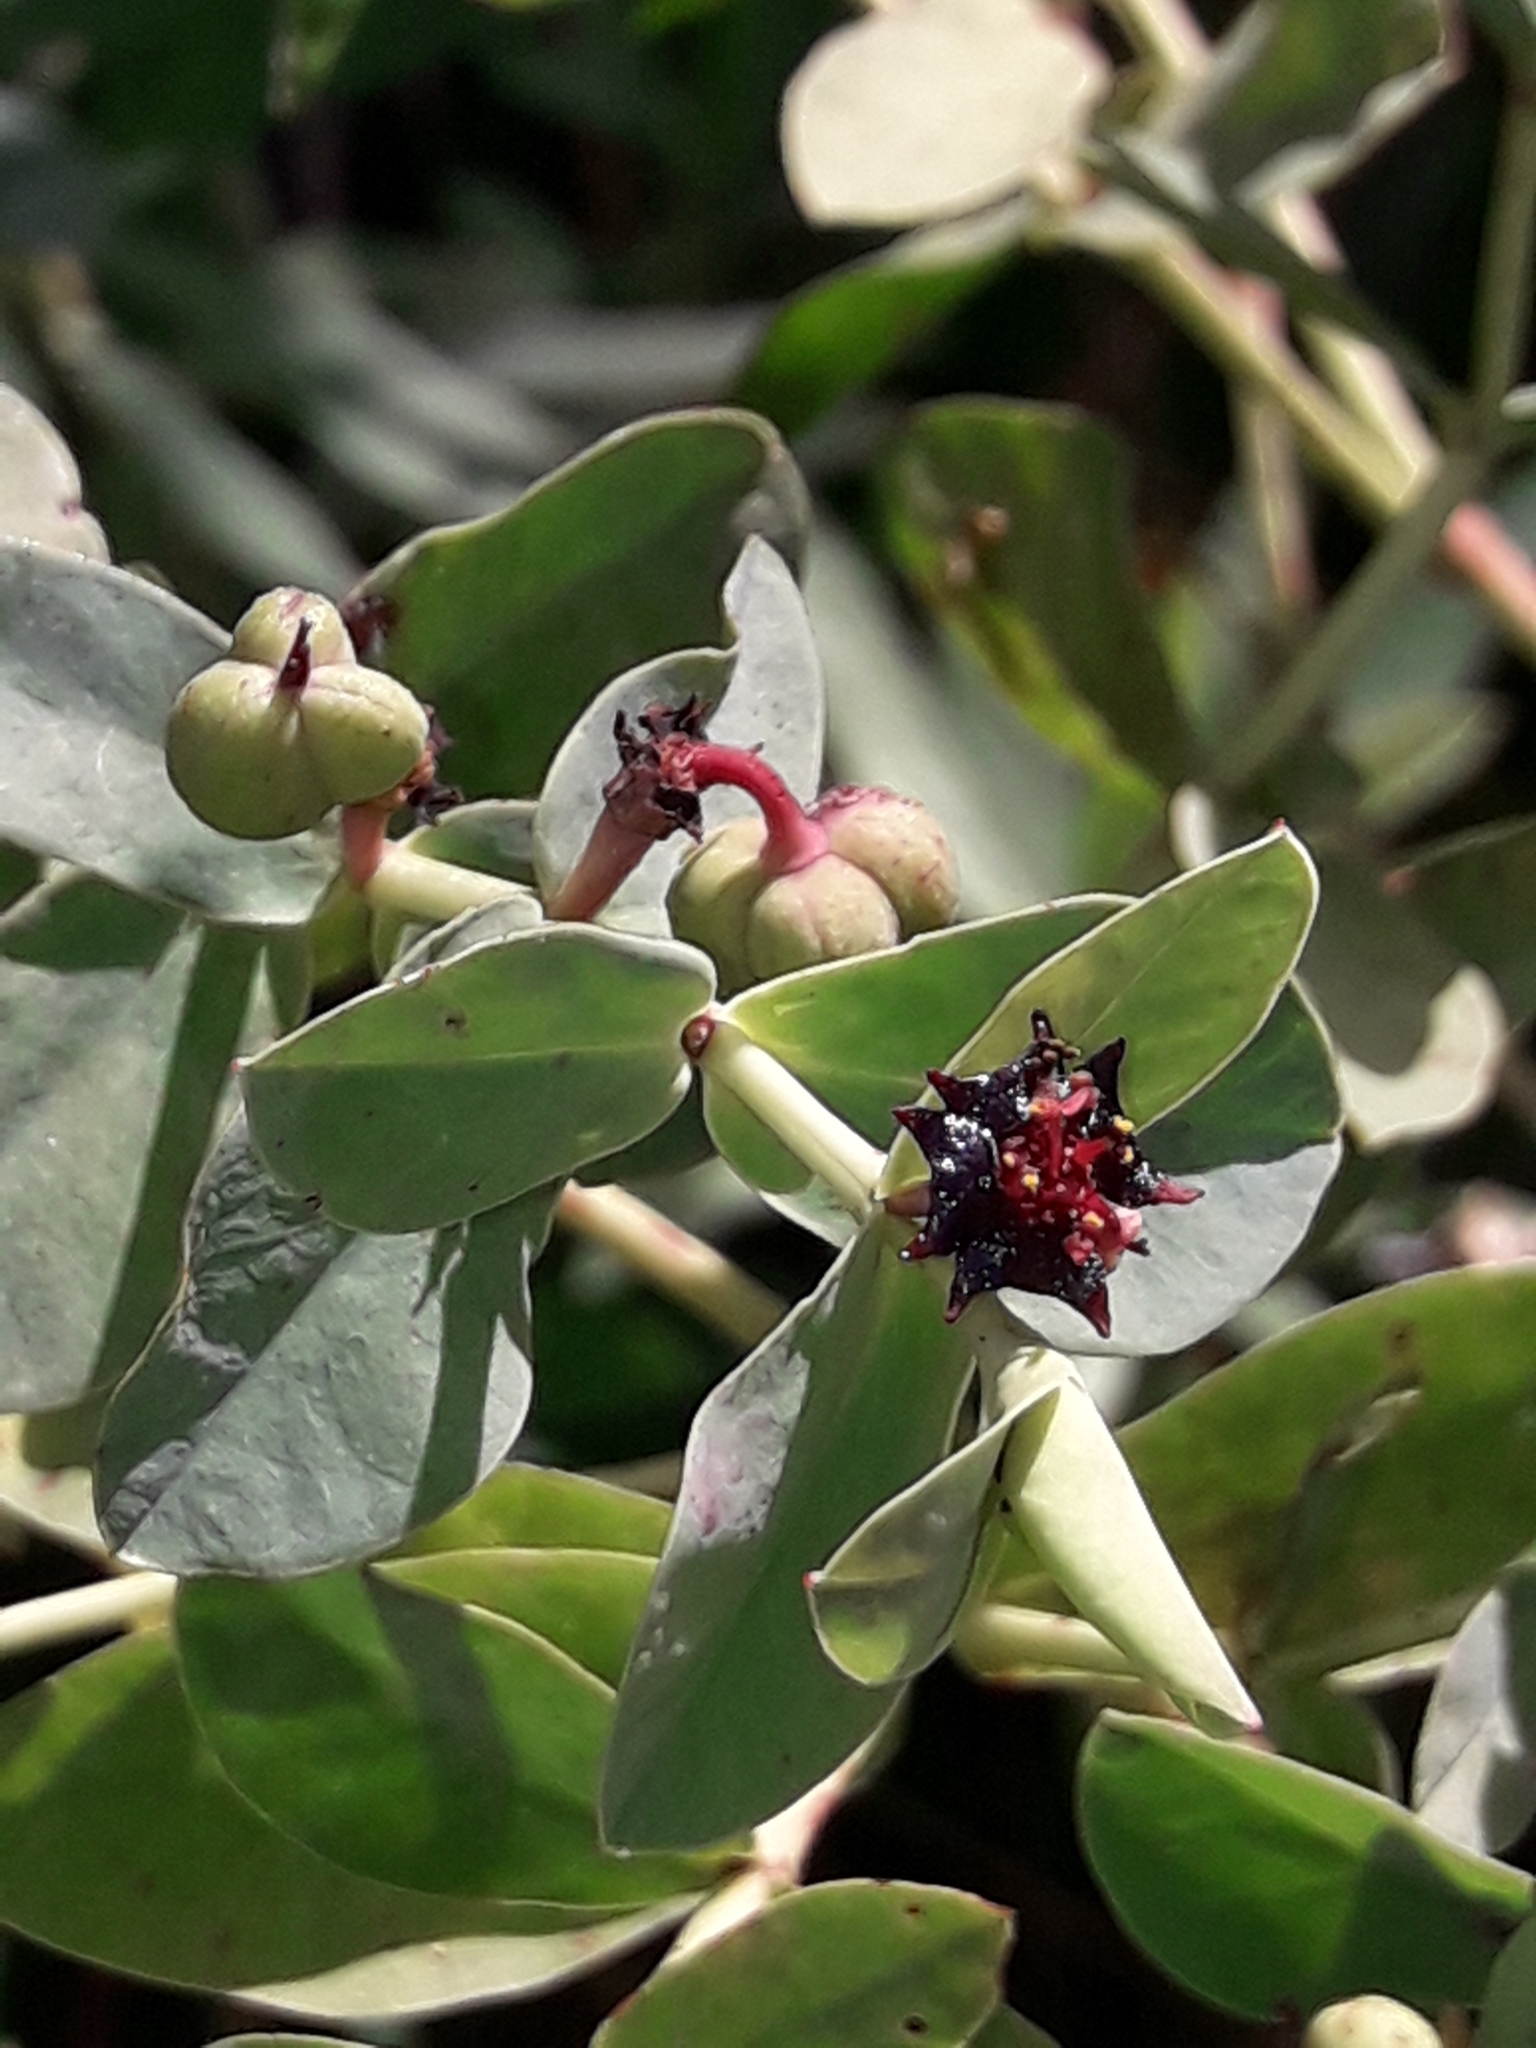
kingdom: Plantae
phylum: Tracheophyta
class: Magnoliopsida
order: Malpighiales
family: Euphorbiaceae
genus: Euphorbia
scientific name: Euphorbia glauca
